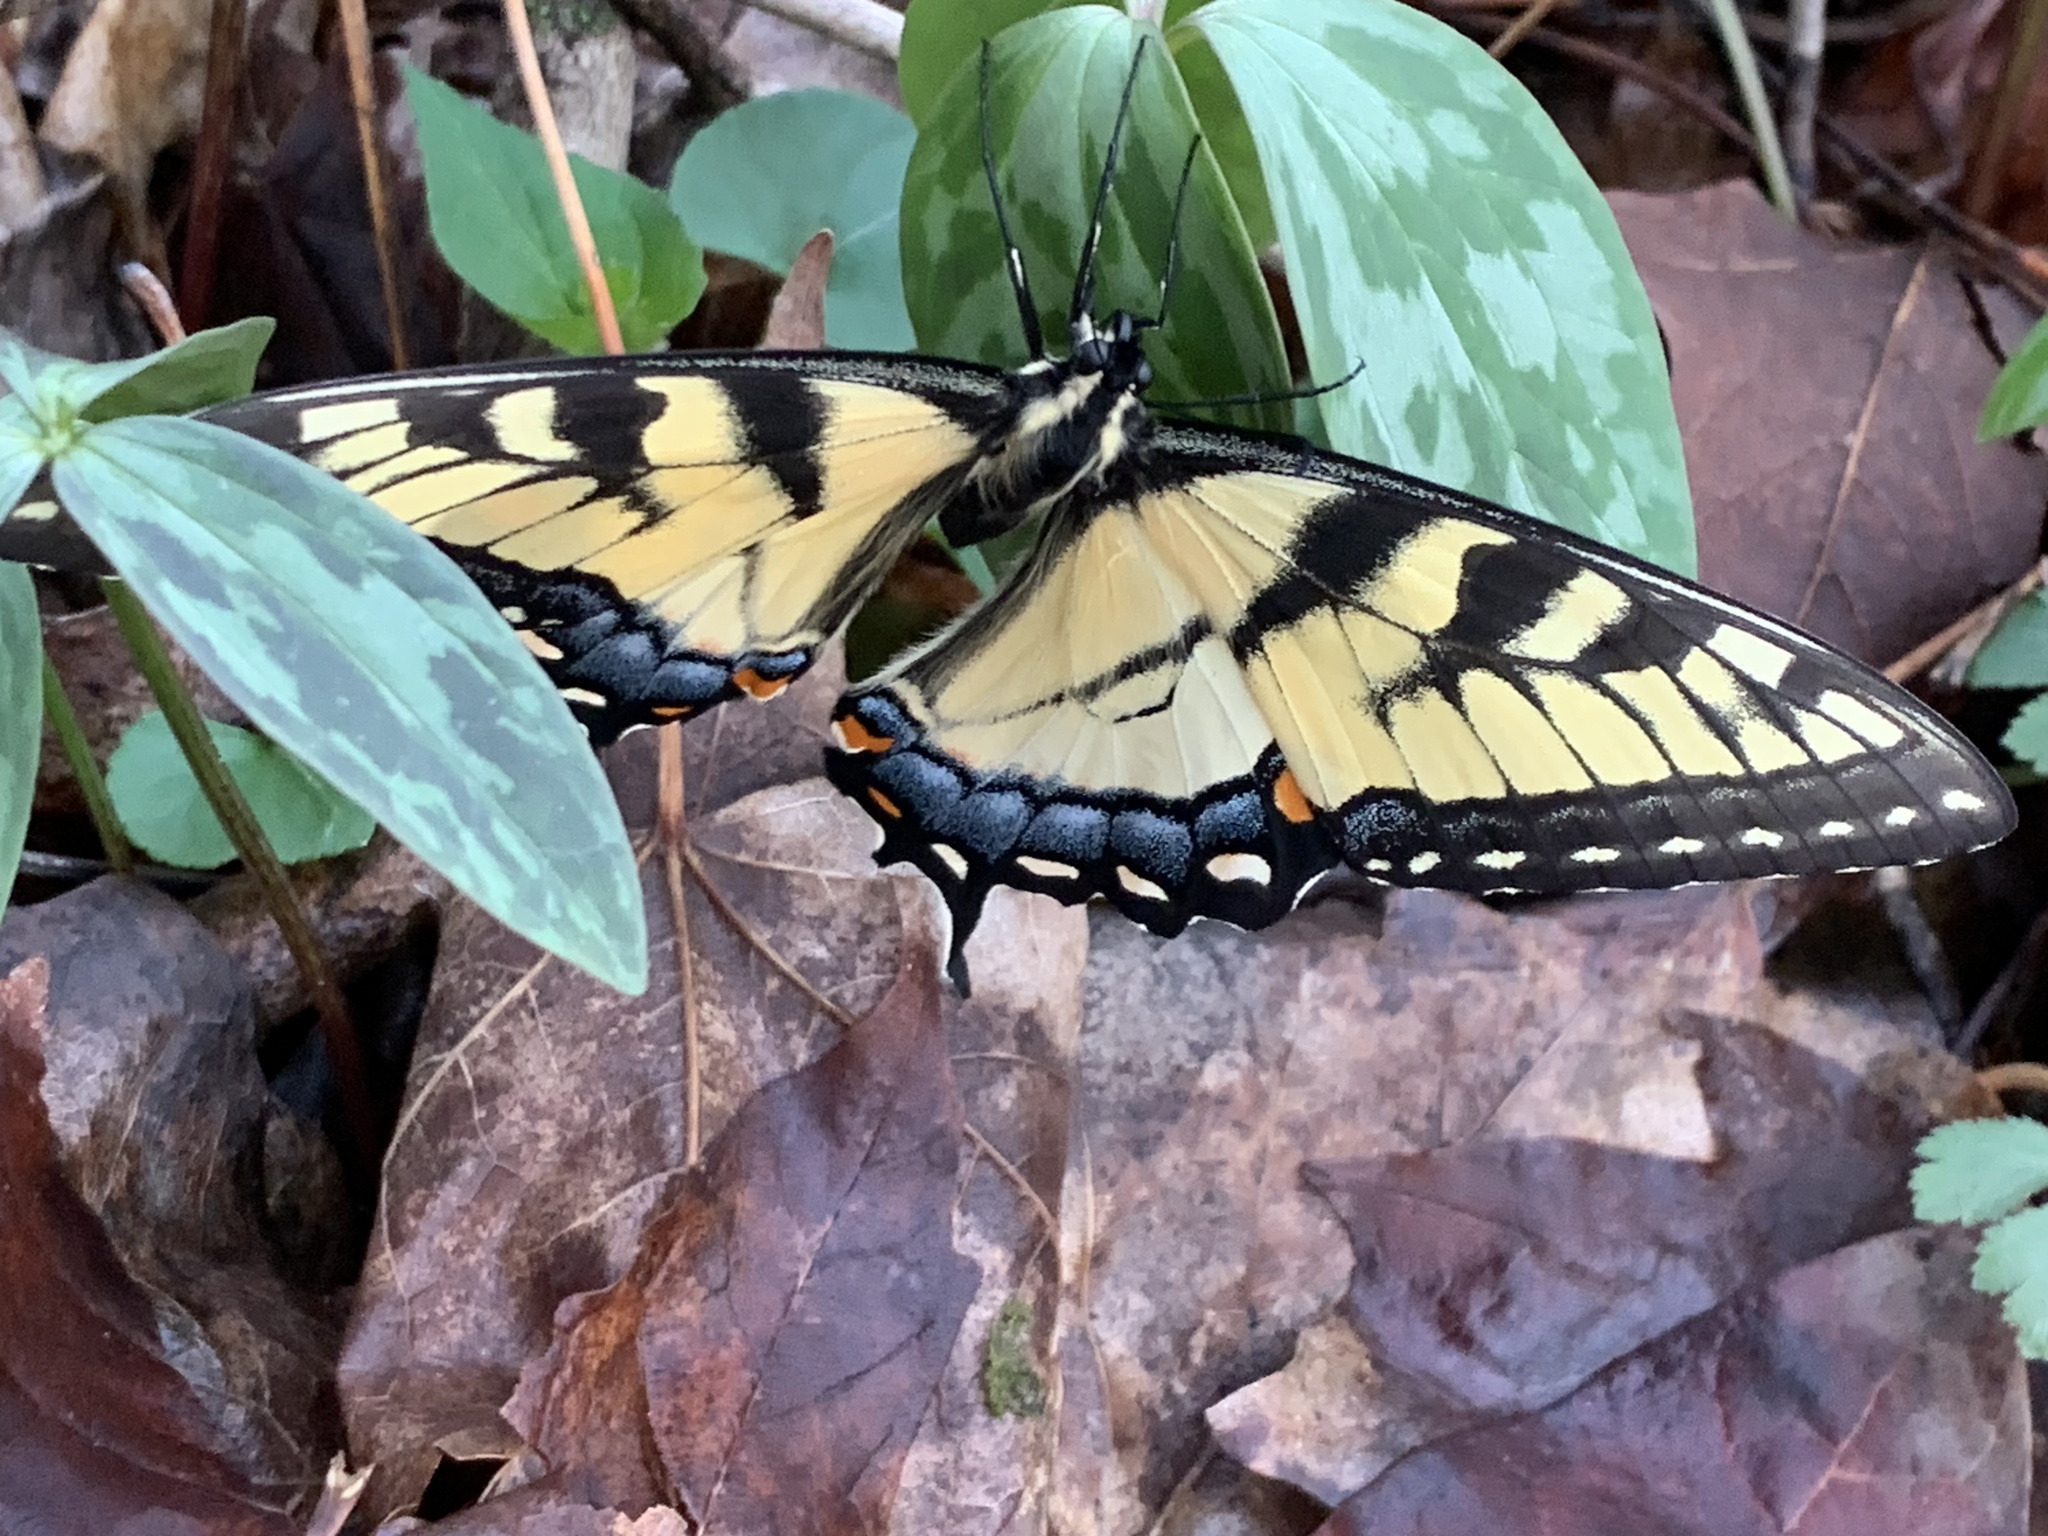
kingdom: Animalia
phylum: Arthropoda
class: Insecta
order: Lepidoptera
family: Papilionidae
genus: Papilio
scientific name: Papilio glaucus
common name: Tiger swallowtail
